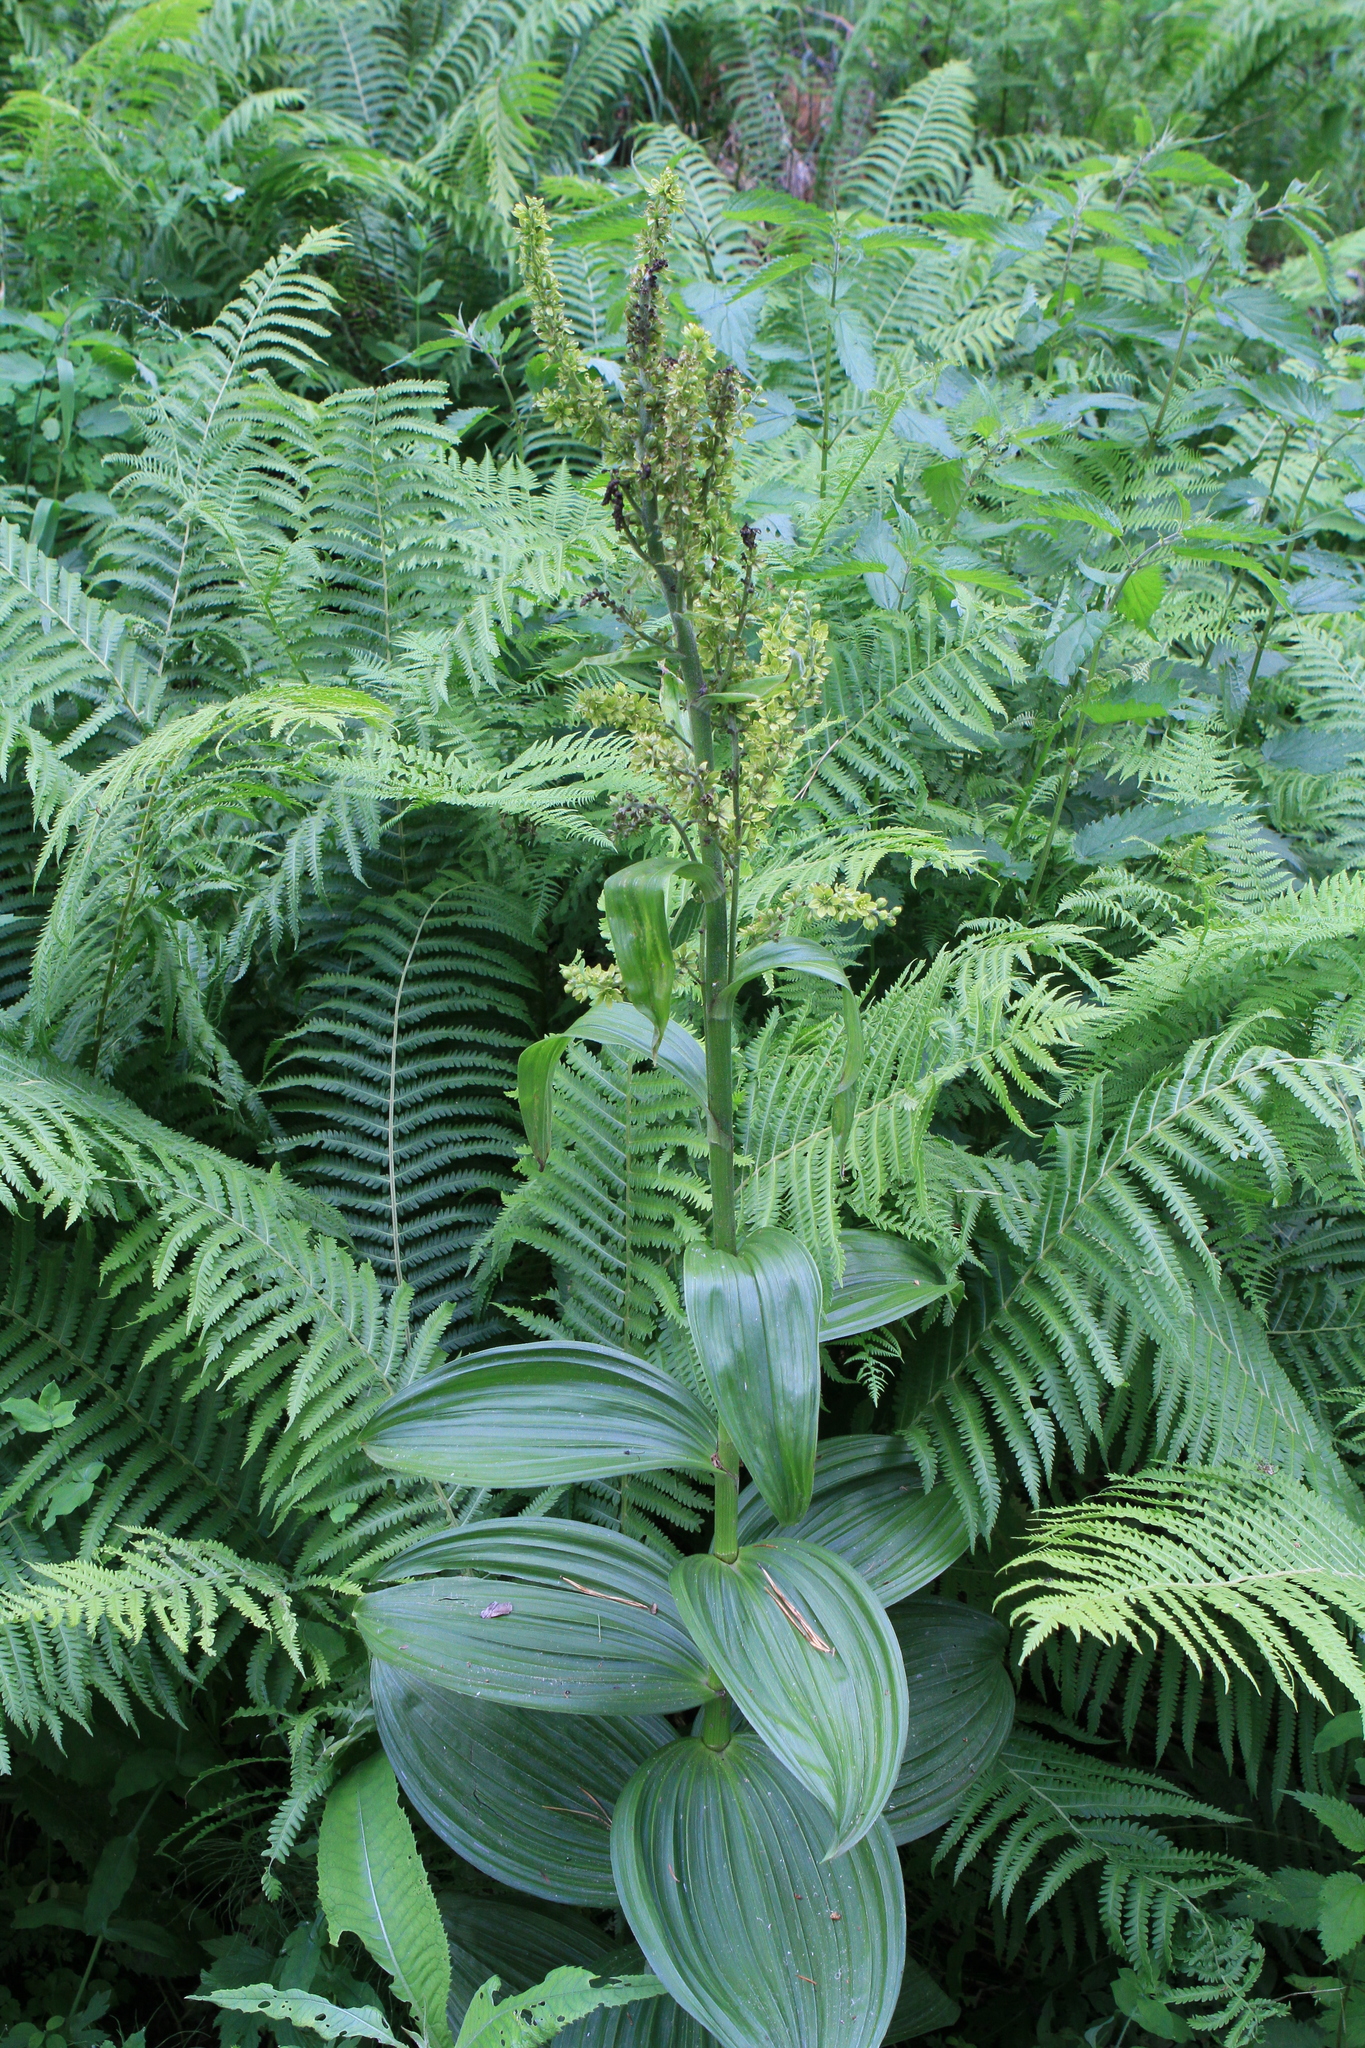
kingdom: Plantae
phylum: Tracheophyta
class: Liliopsida
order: Liliales
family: Melanthiaceae
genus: Veratrum
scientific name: Veratrum lobelianum
